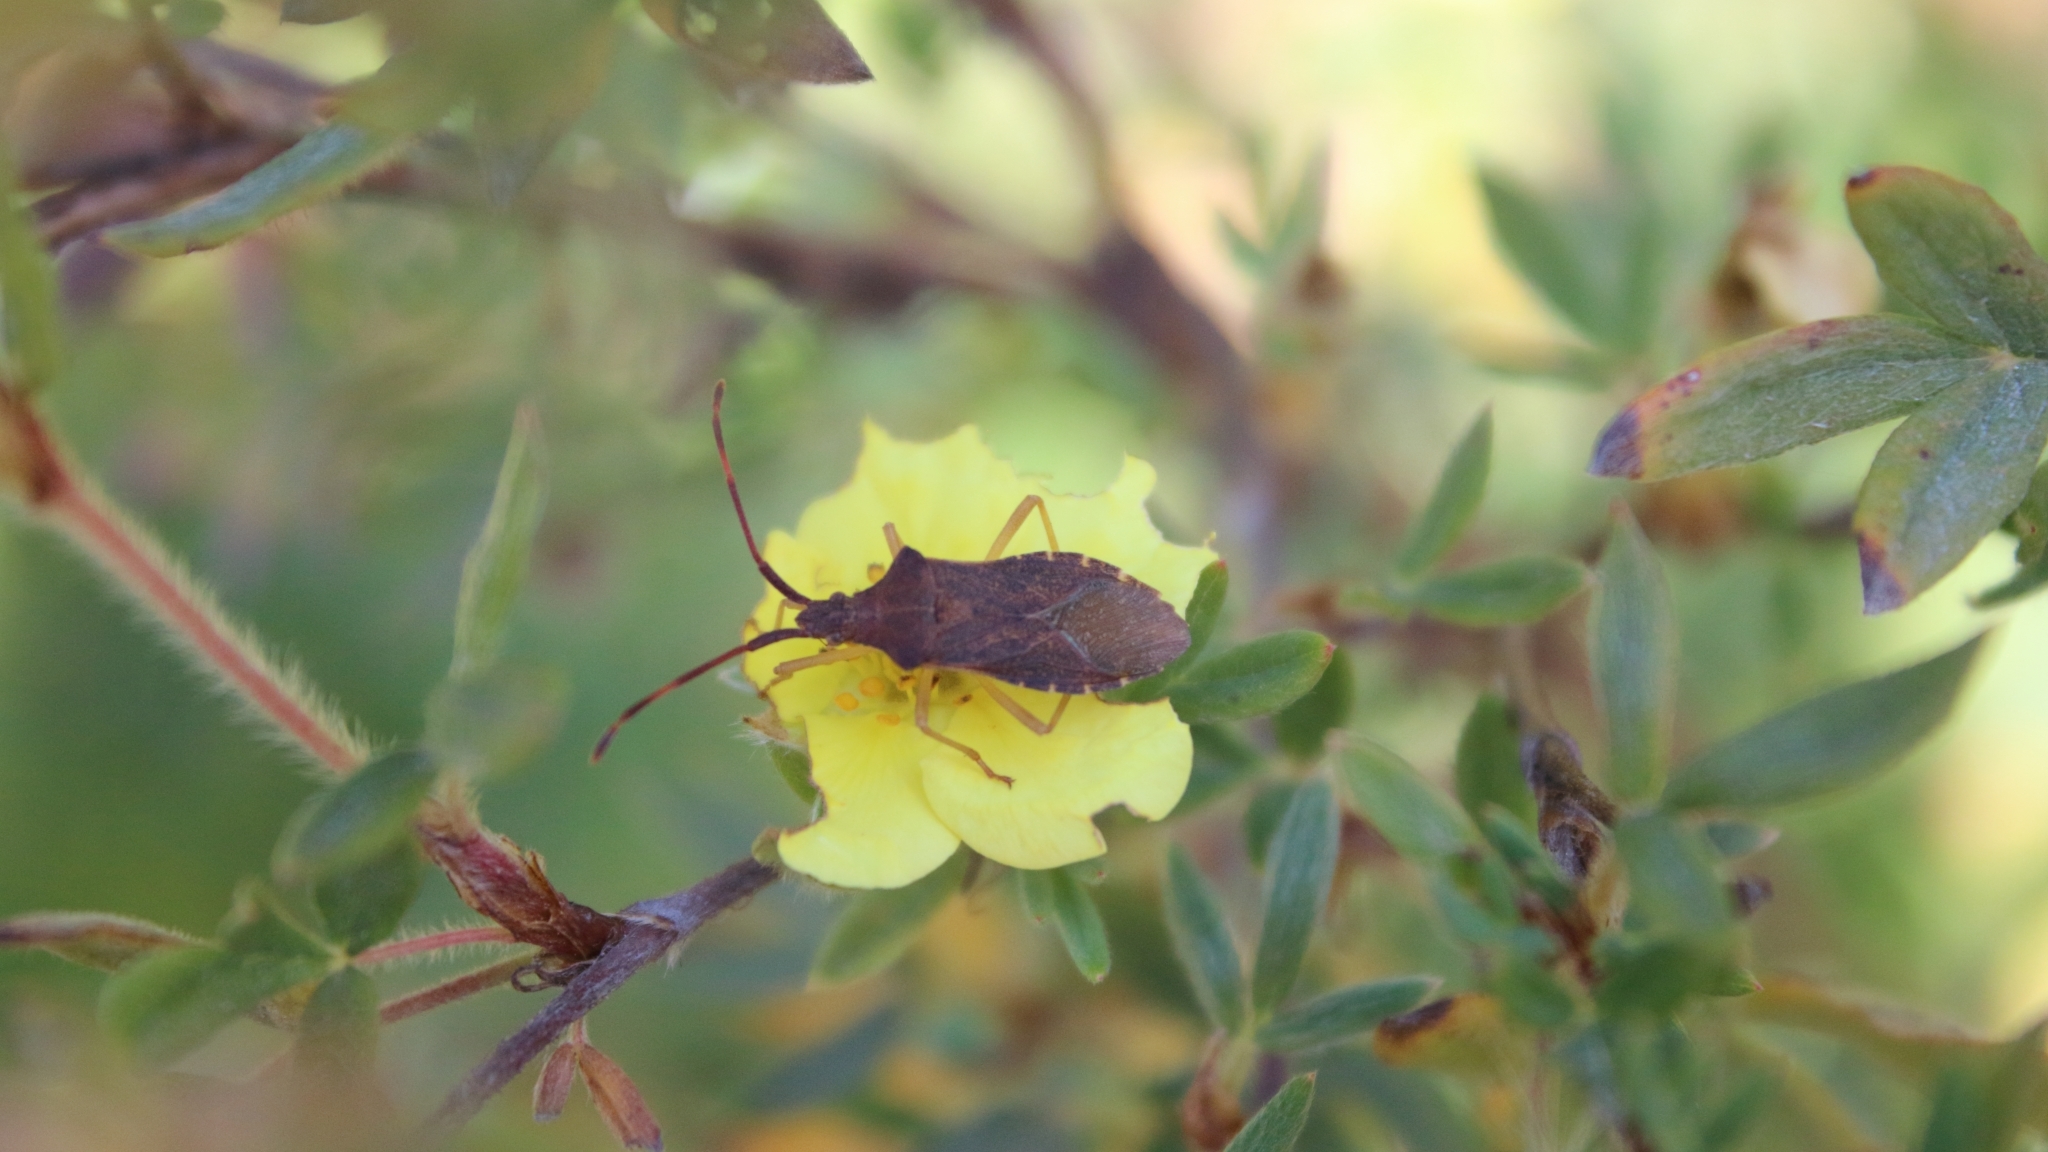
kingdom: Animalia
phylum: Arthropoda
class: Insecta
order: Hemiptera
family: Coreidae
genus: Gonocerus
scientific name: Gonocerus acuteangulatus
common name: Box bug
